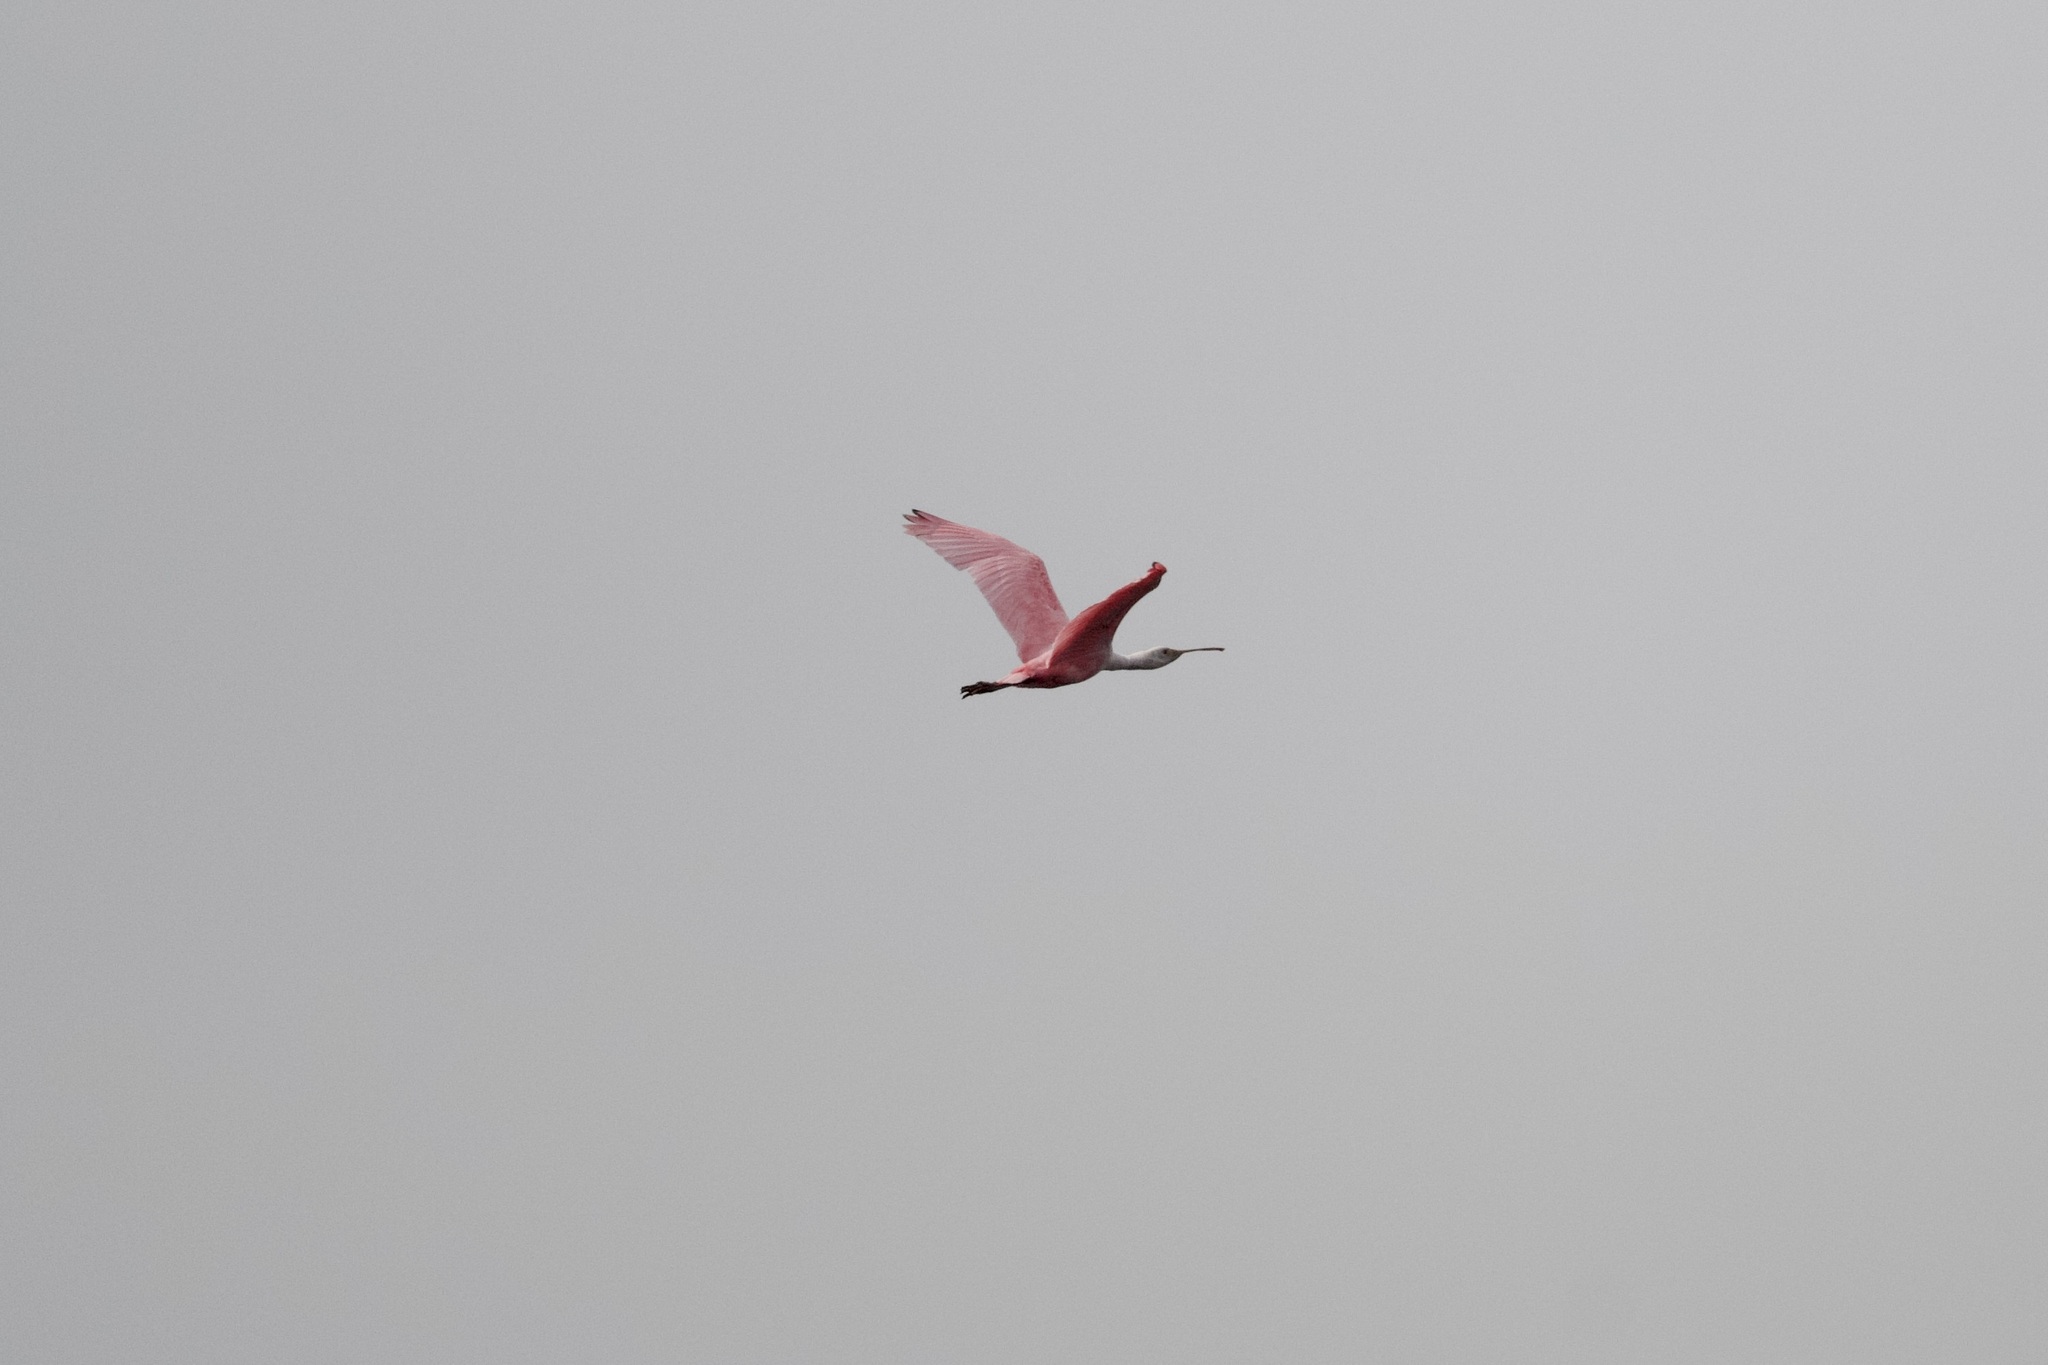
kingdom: Animalia
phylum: Chordata
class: Aves
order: Pelecaniformes
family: Threskiornithidae
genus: Platalea
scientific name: Platalea ajaja
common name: Roseate spoonbill
